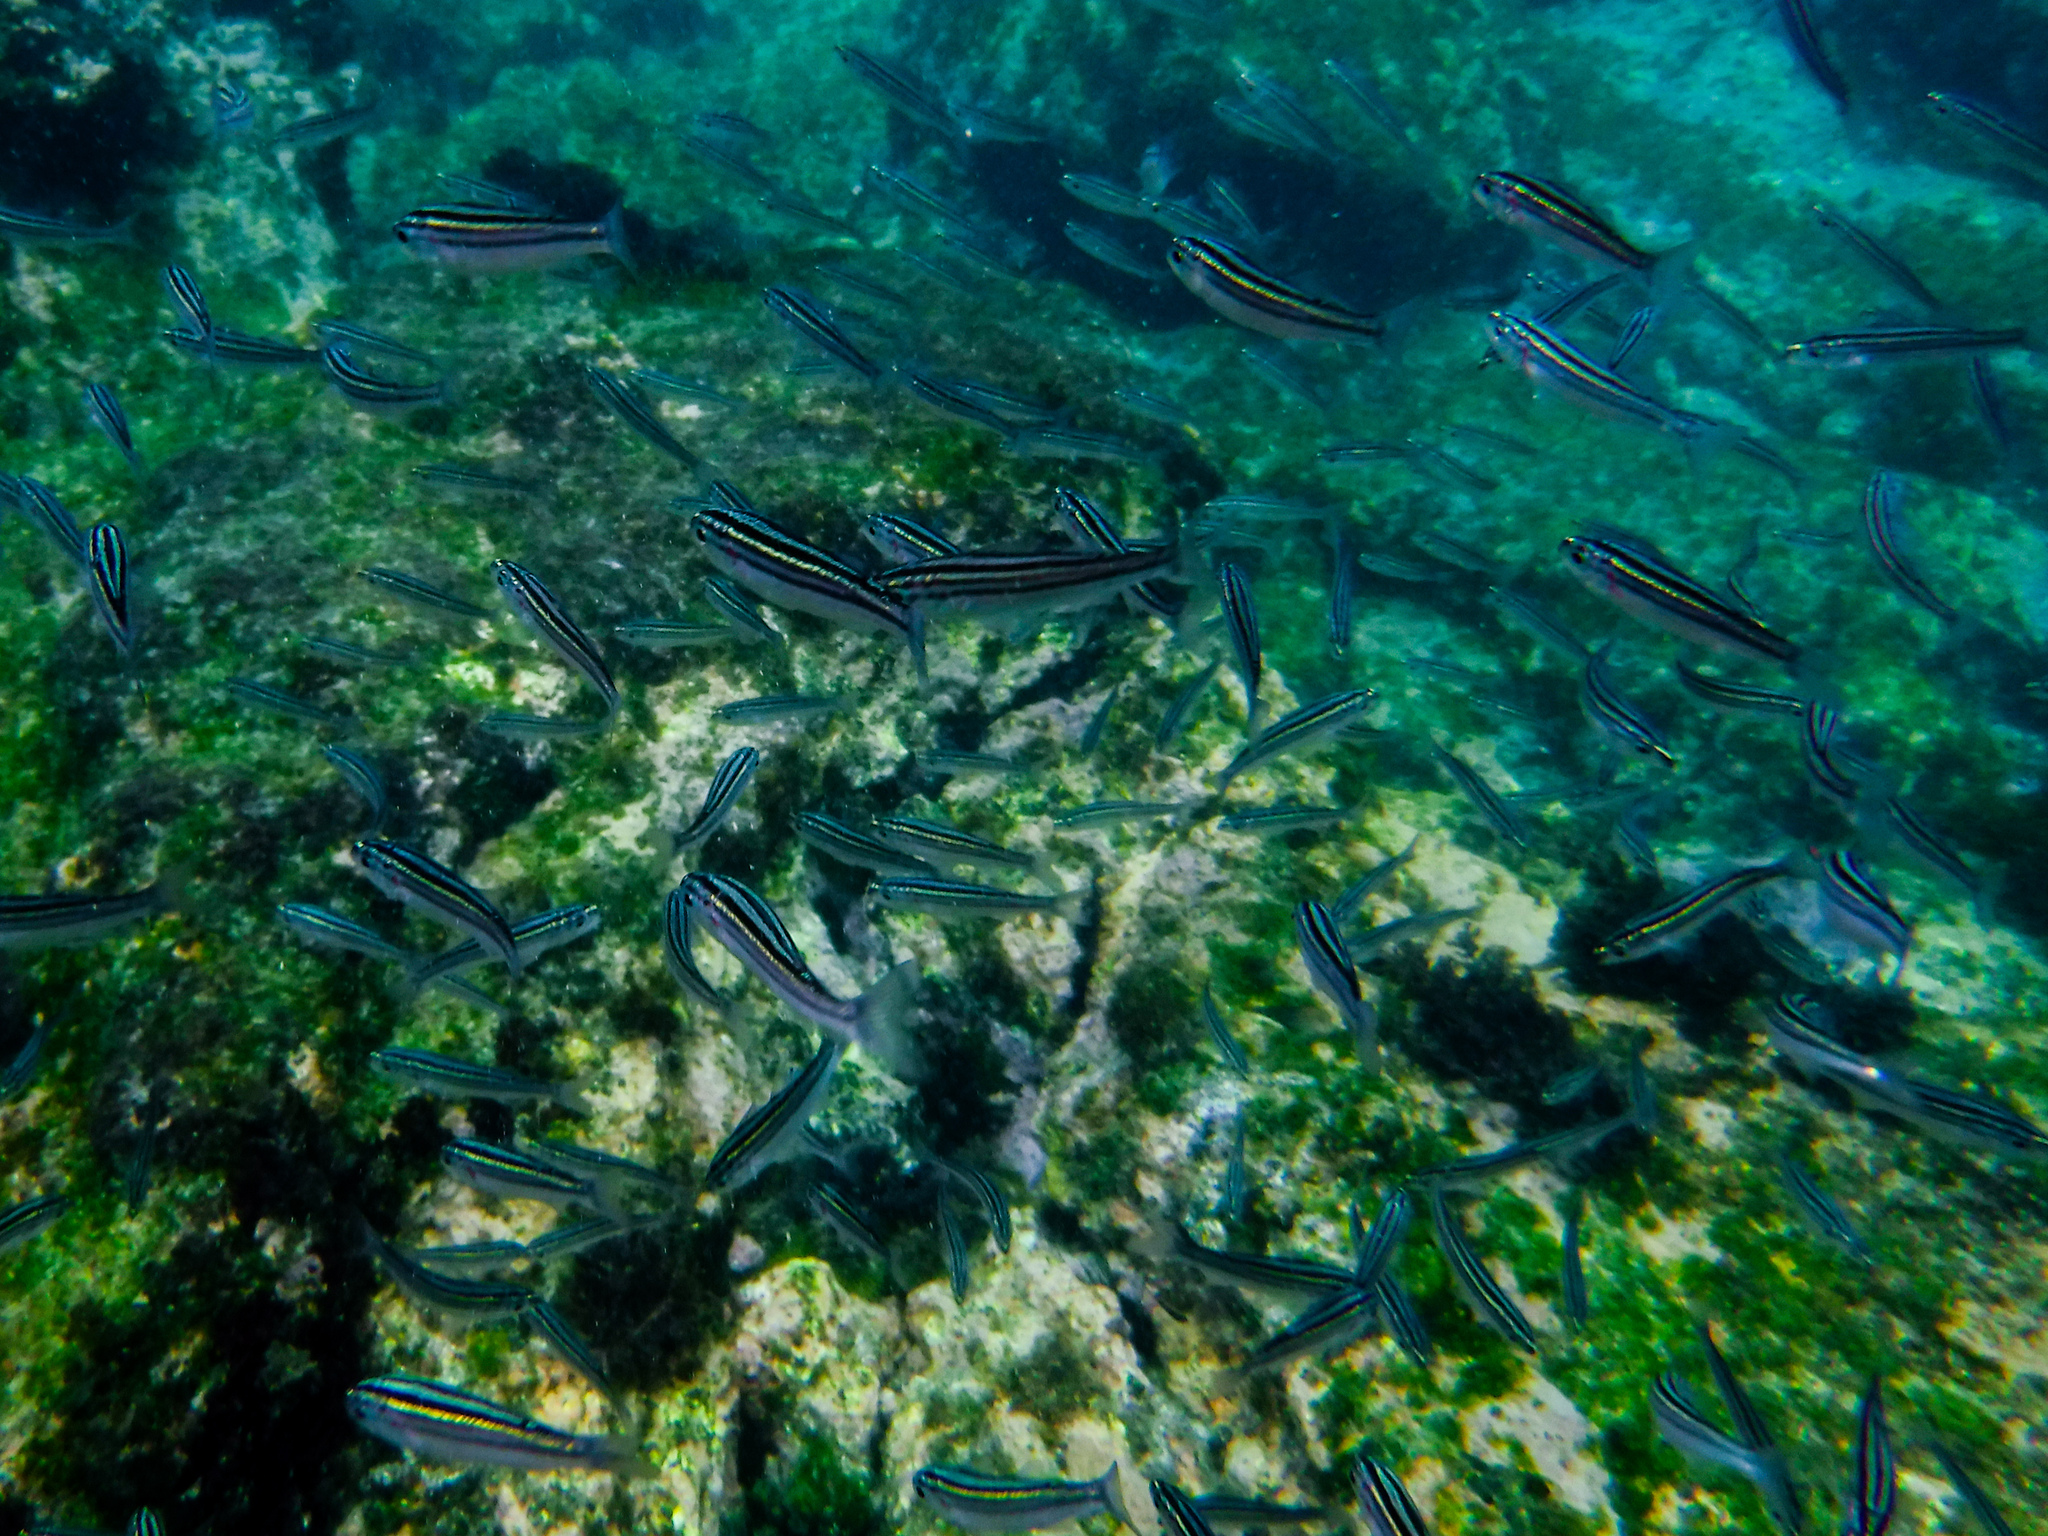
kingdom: Animalia
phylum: Chordata
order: Perciformes
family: Haemulidae
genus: Xenocys
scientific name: Xenocys jessiae
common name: Black-striped salema
